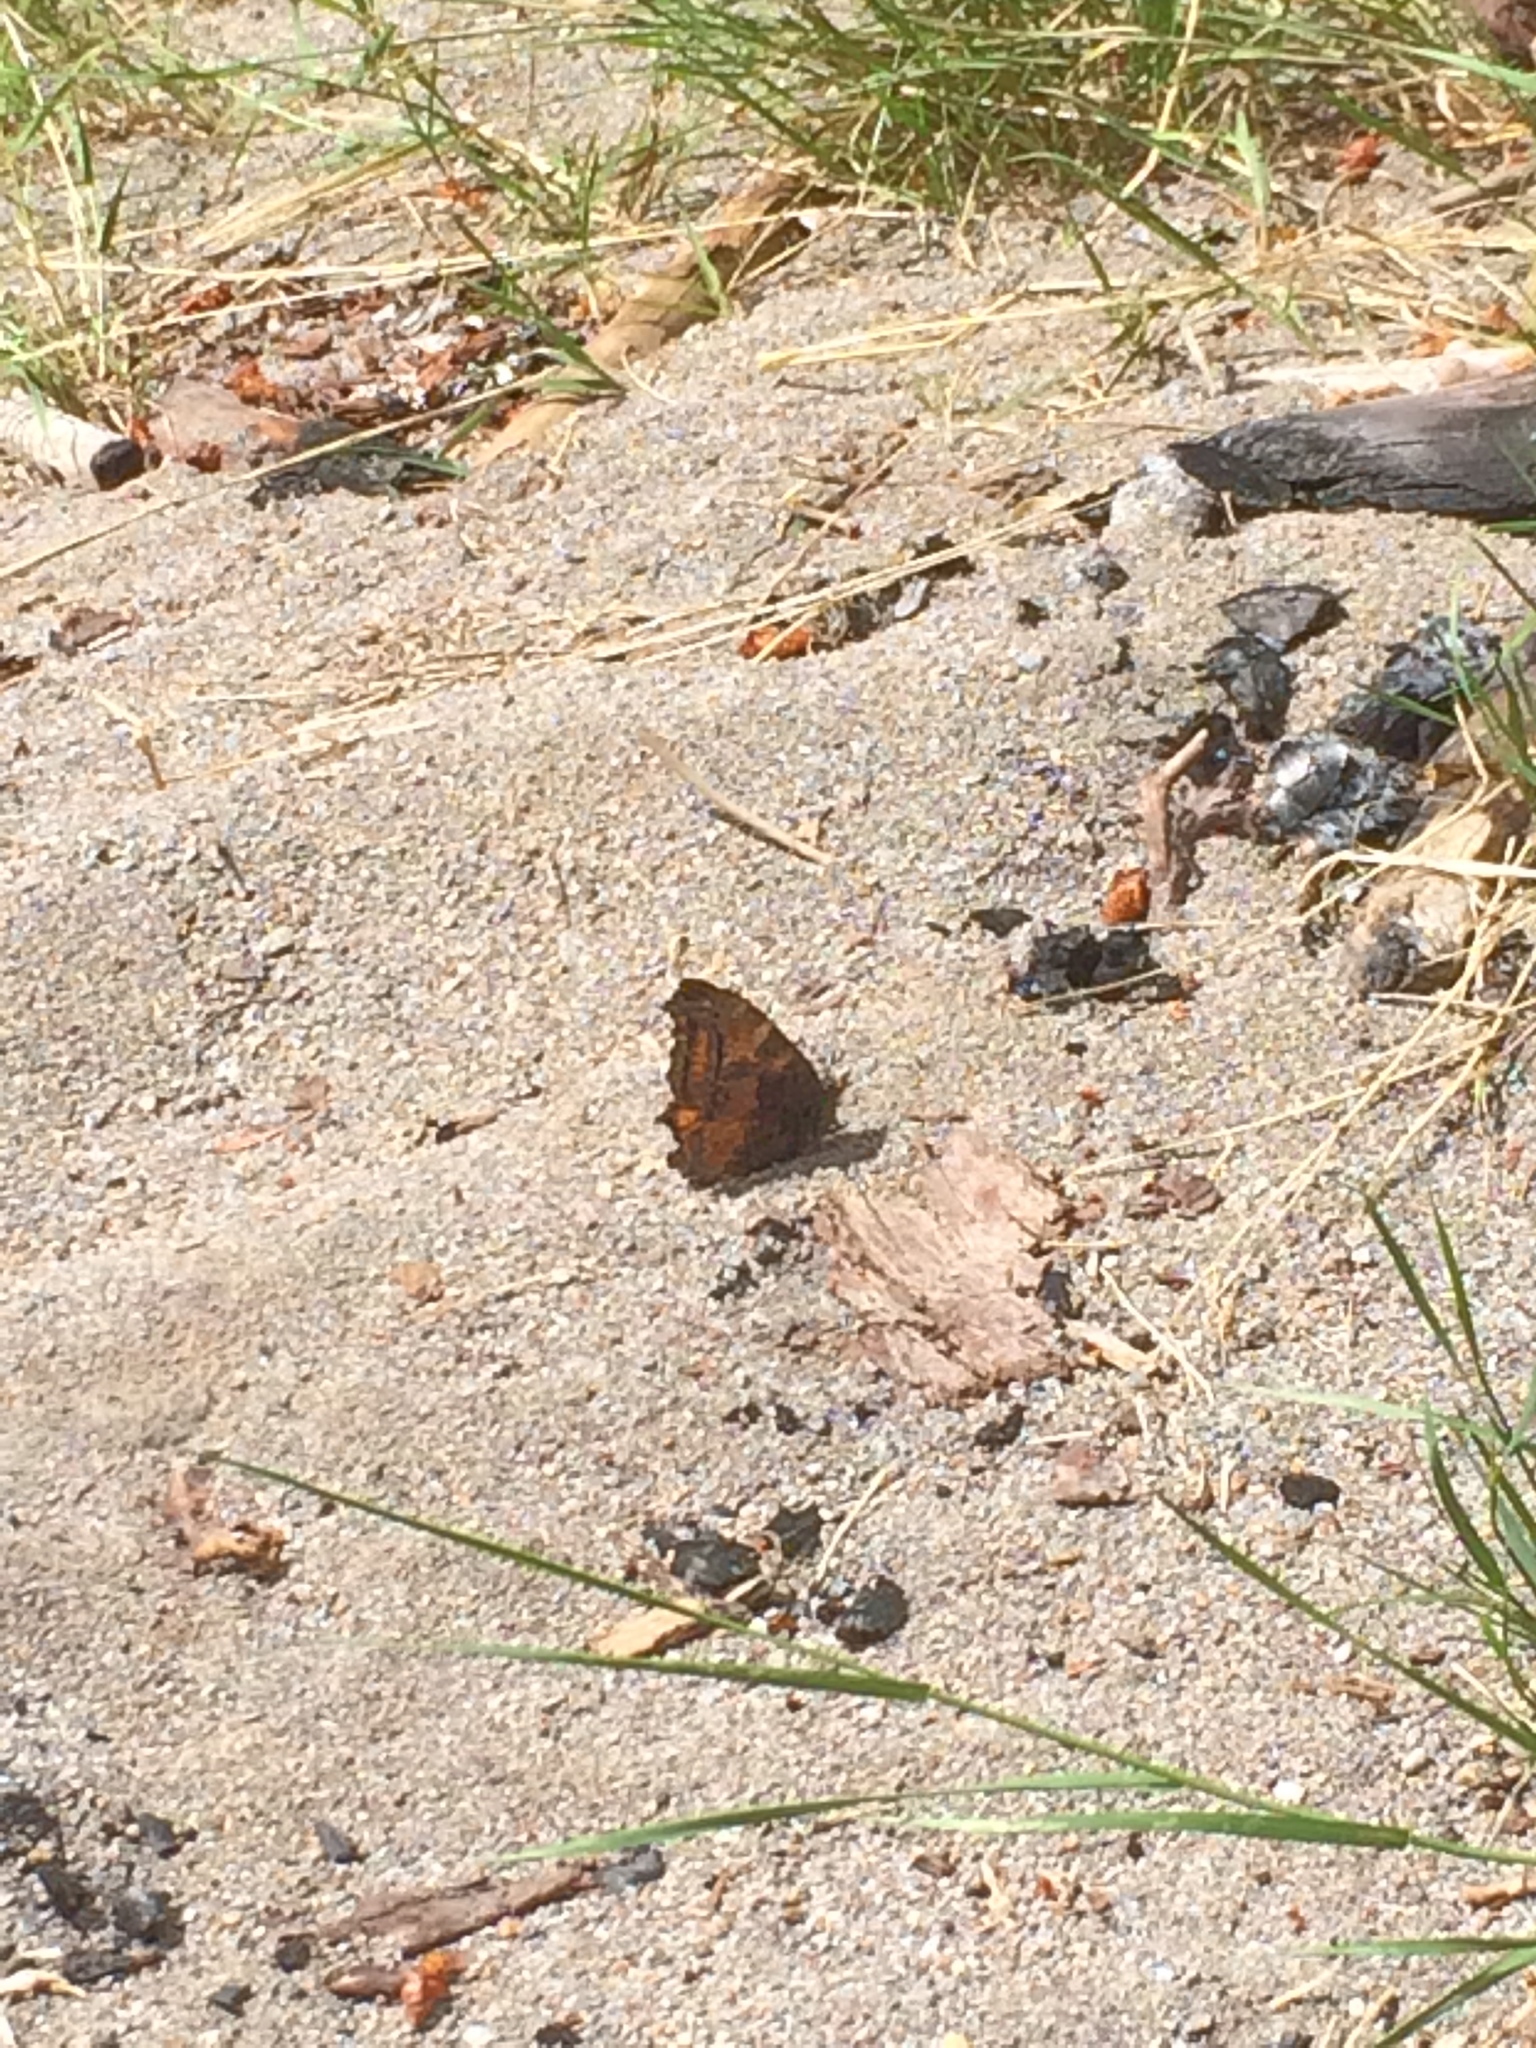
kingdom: Animalia
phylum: Arthropoda
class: Insecta
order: Lepidoptera
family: Nymphalidae
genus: Nymphalis
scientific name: Nymphalis californica
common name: California tortoiseshell
